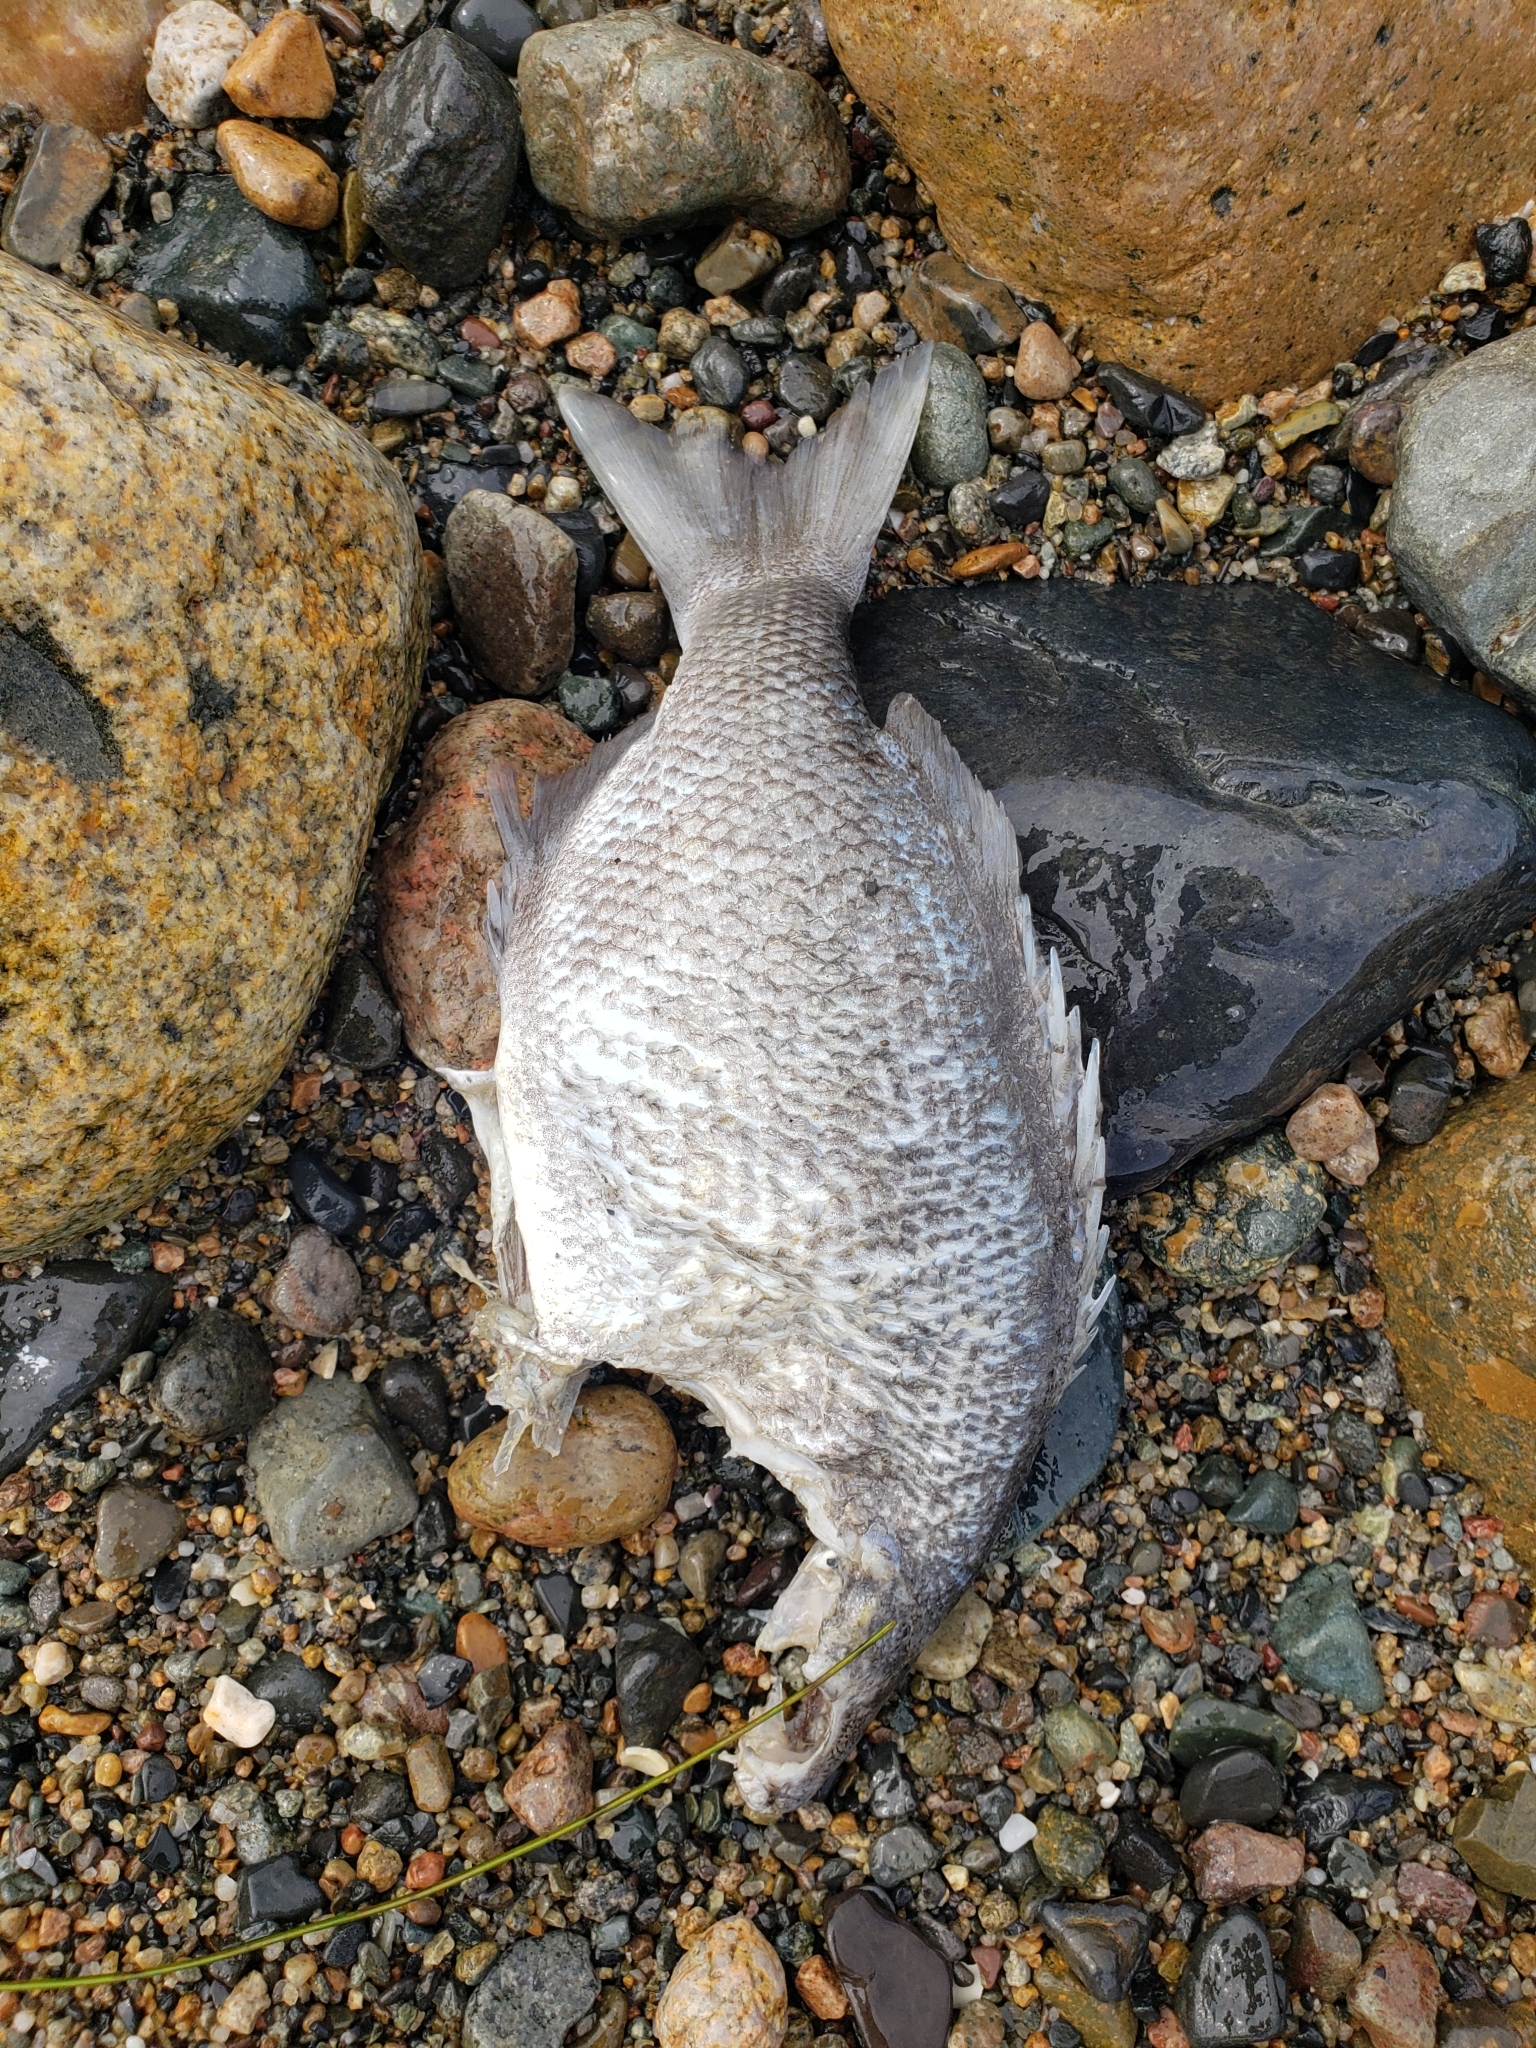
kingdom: Animalia
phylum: Chordata
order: Perciformes
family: Kyphosidae
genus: Kyphosus
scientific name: Kyphosus azureus
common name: Perch
